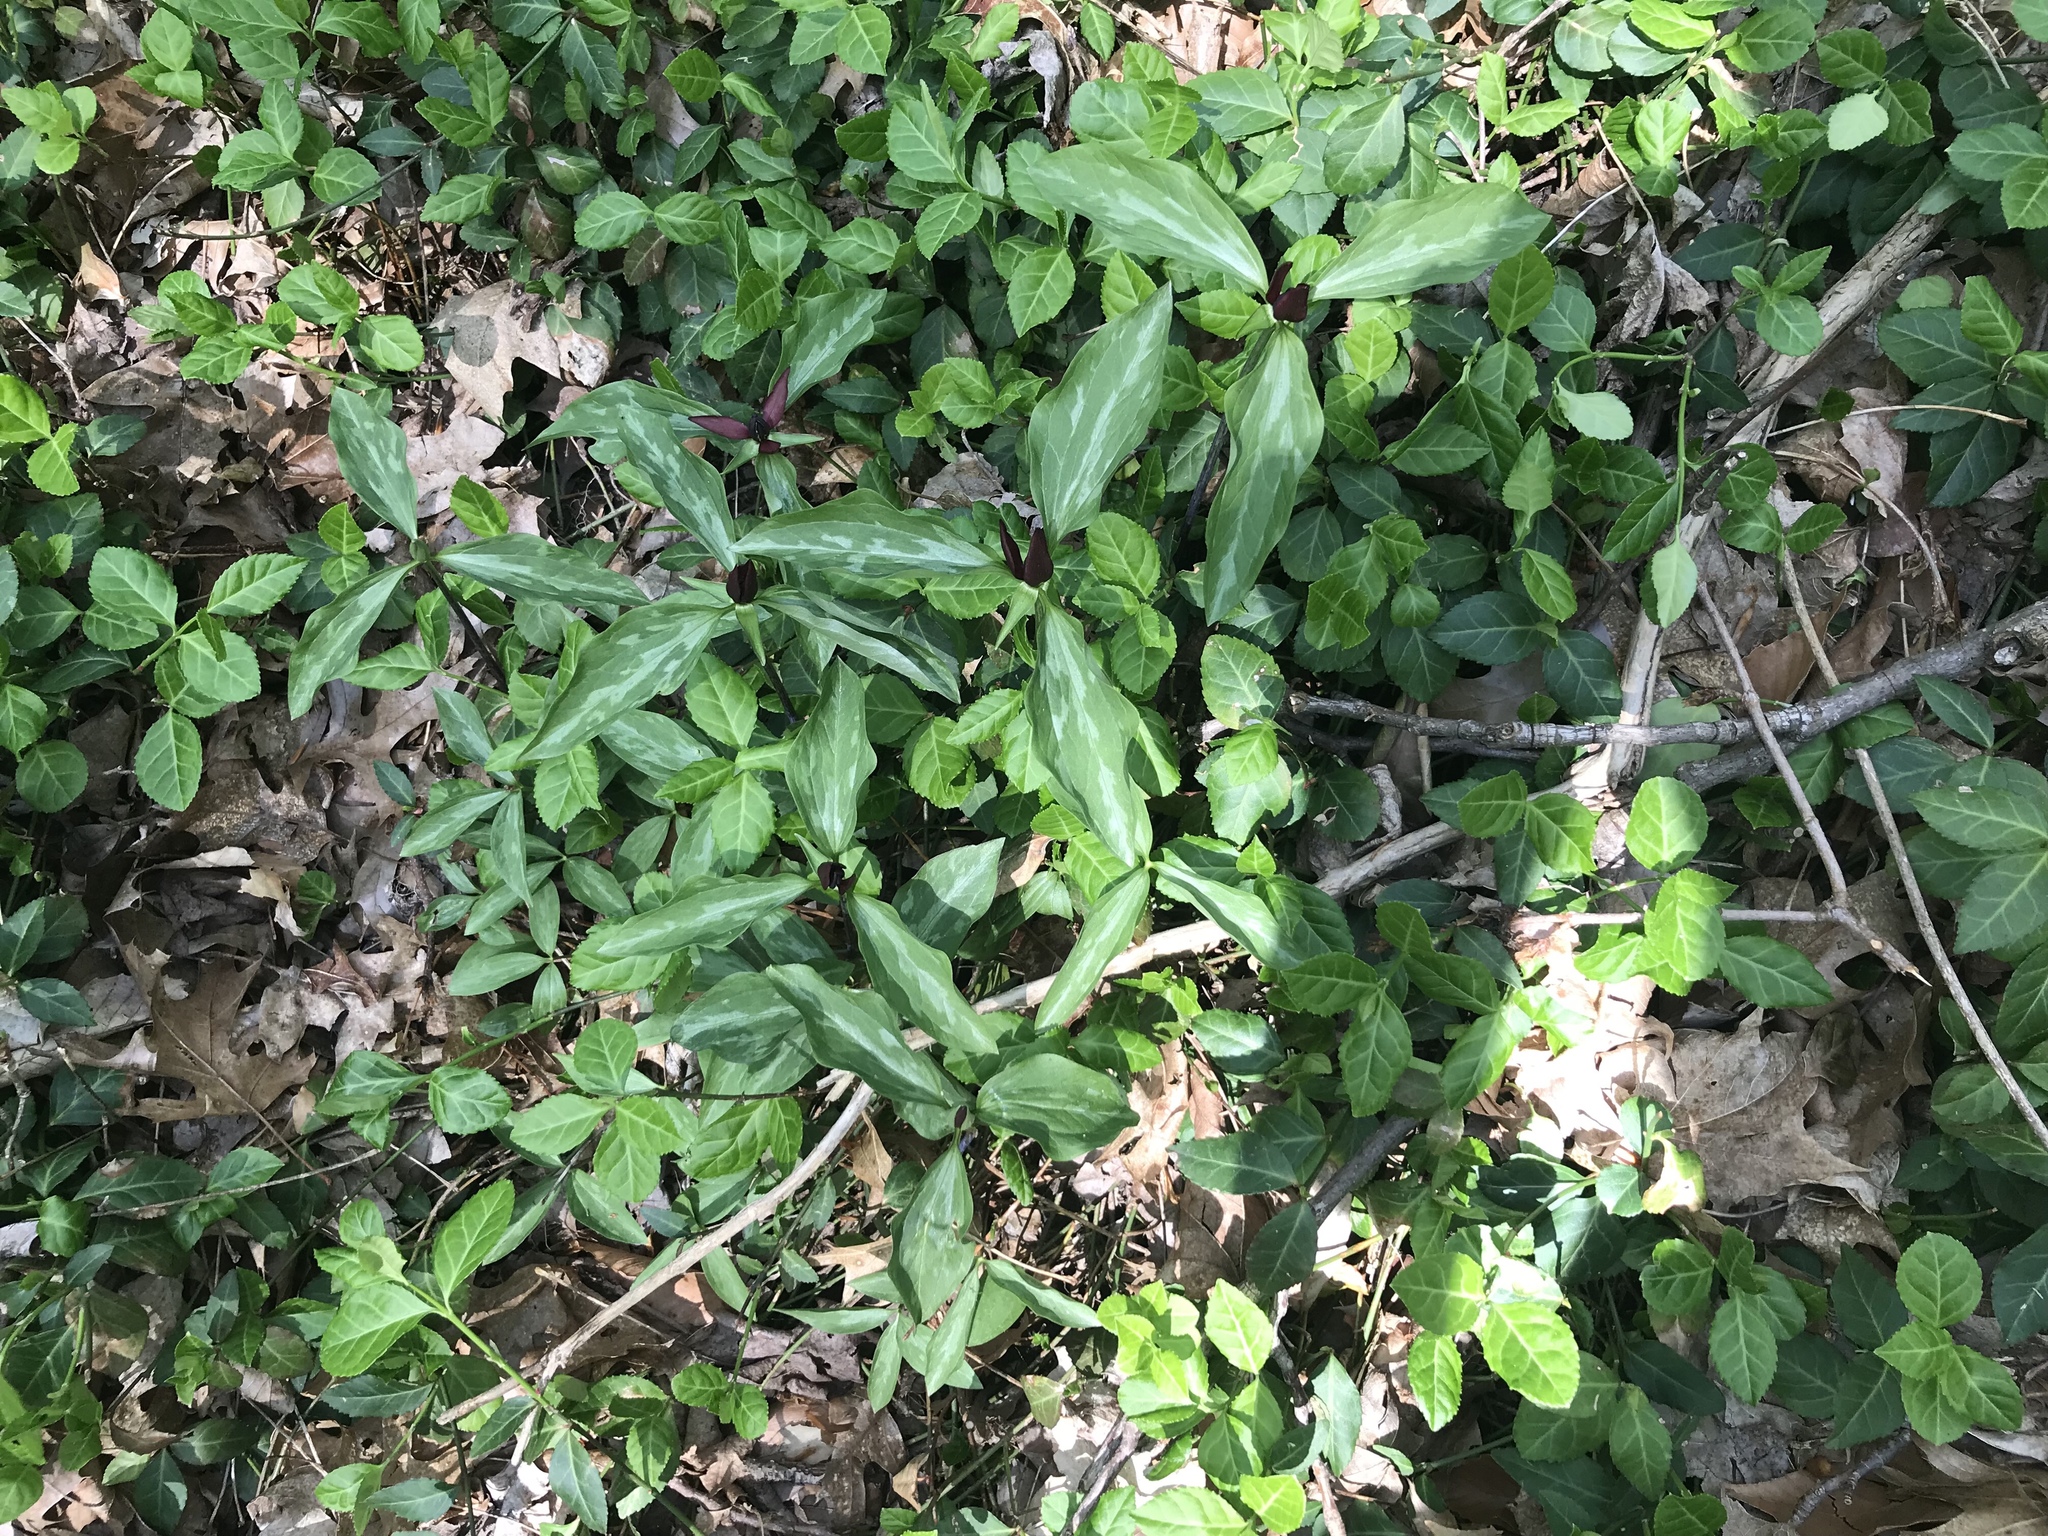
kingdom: Plantae
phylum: Tracheophyta
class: Liliopsida
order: Liliales
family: Melanthiaceae
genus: Trillium
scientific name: Trillium recurvatum
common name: Bloody butcher
